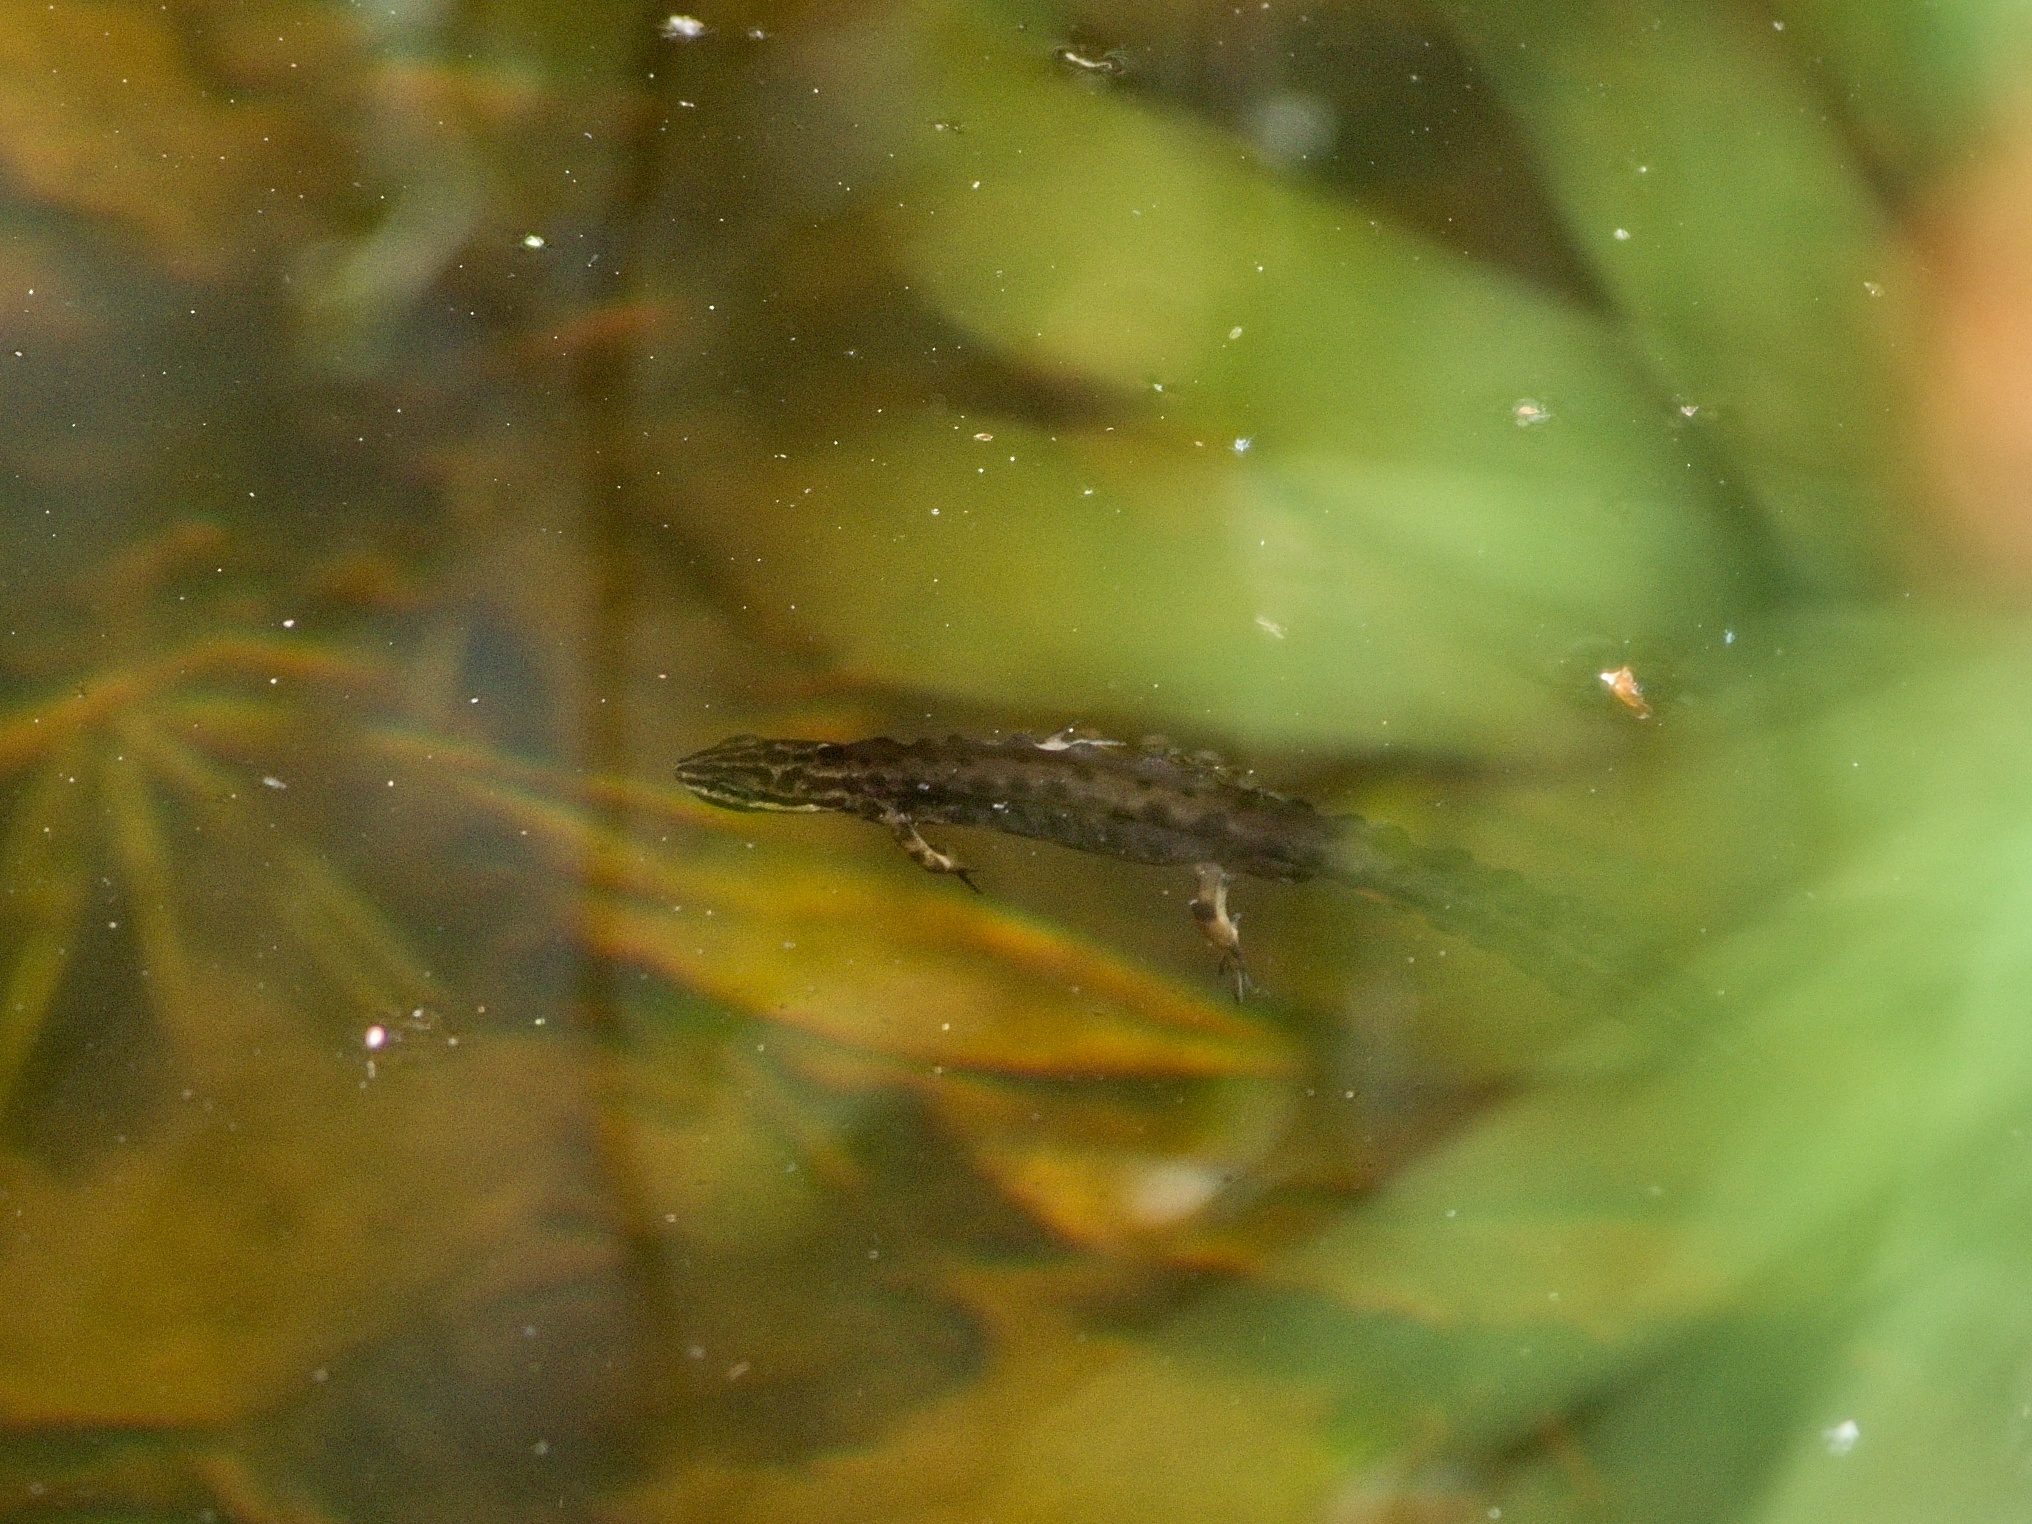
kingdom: Animalia
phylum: Chordata
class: Amphibia
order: Caudata
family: Salamandridae
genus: Lissotriton
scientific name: Lissotriton vulgaris
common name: Smooth newt
